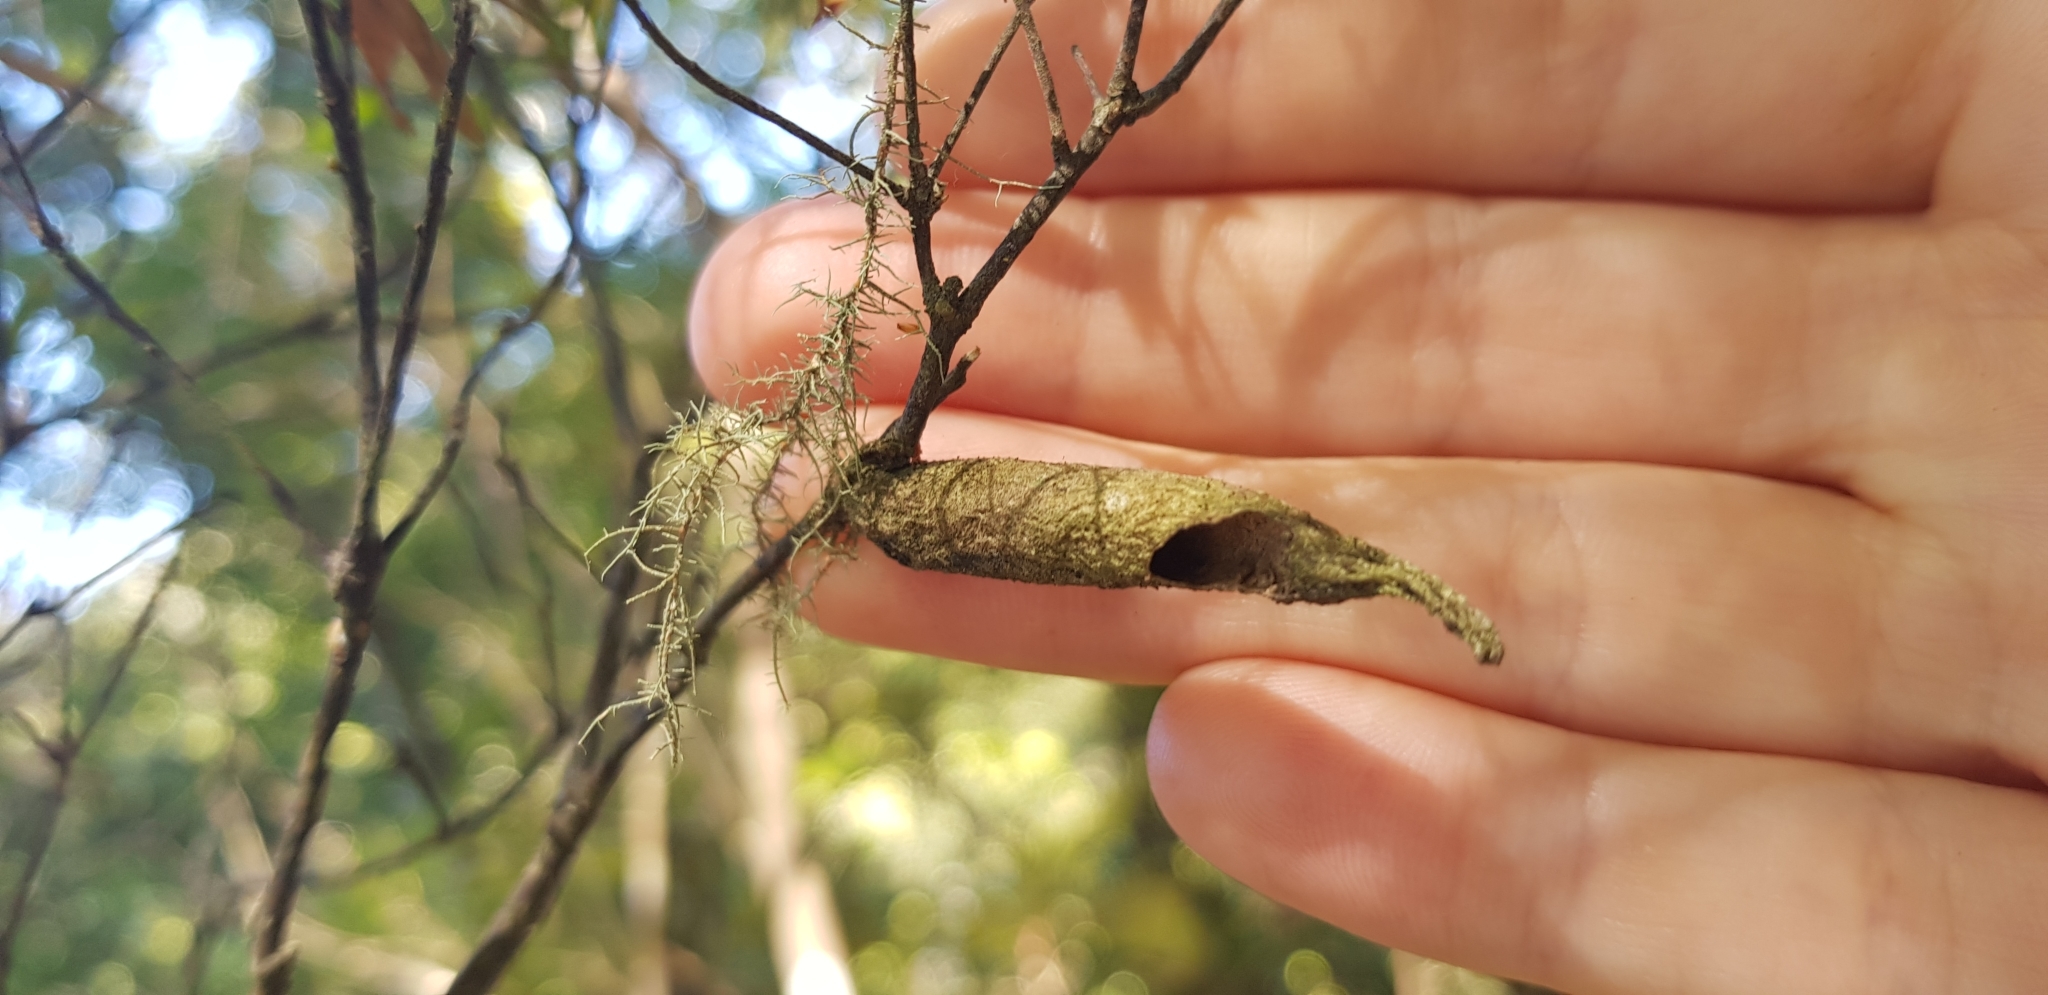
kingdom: Animalia
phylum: Arthropoda
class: Insecta
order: Lepidoptera
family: Psychidae
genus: Liothula
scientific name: Liothula omnivora
